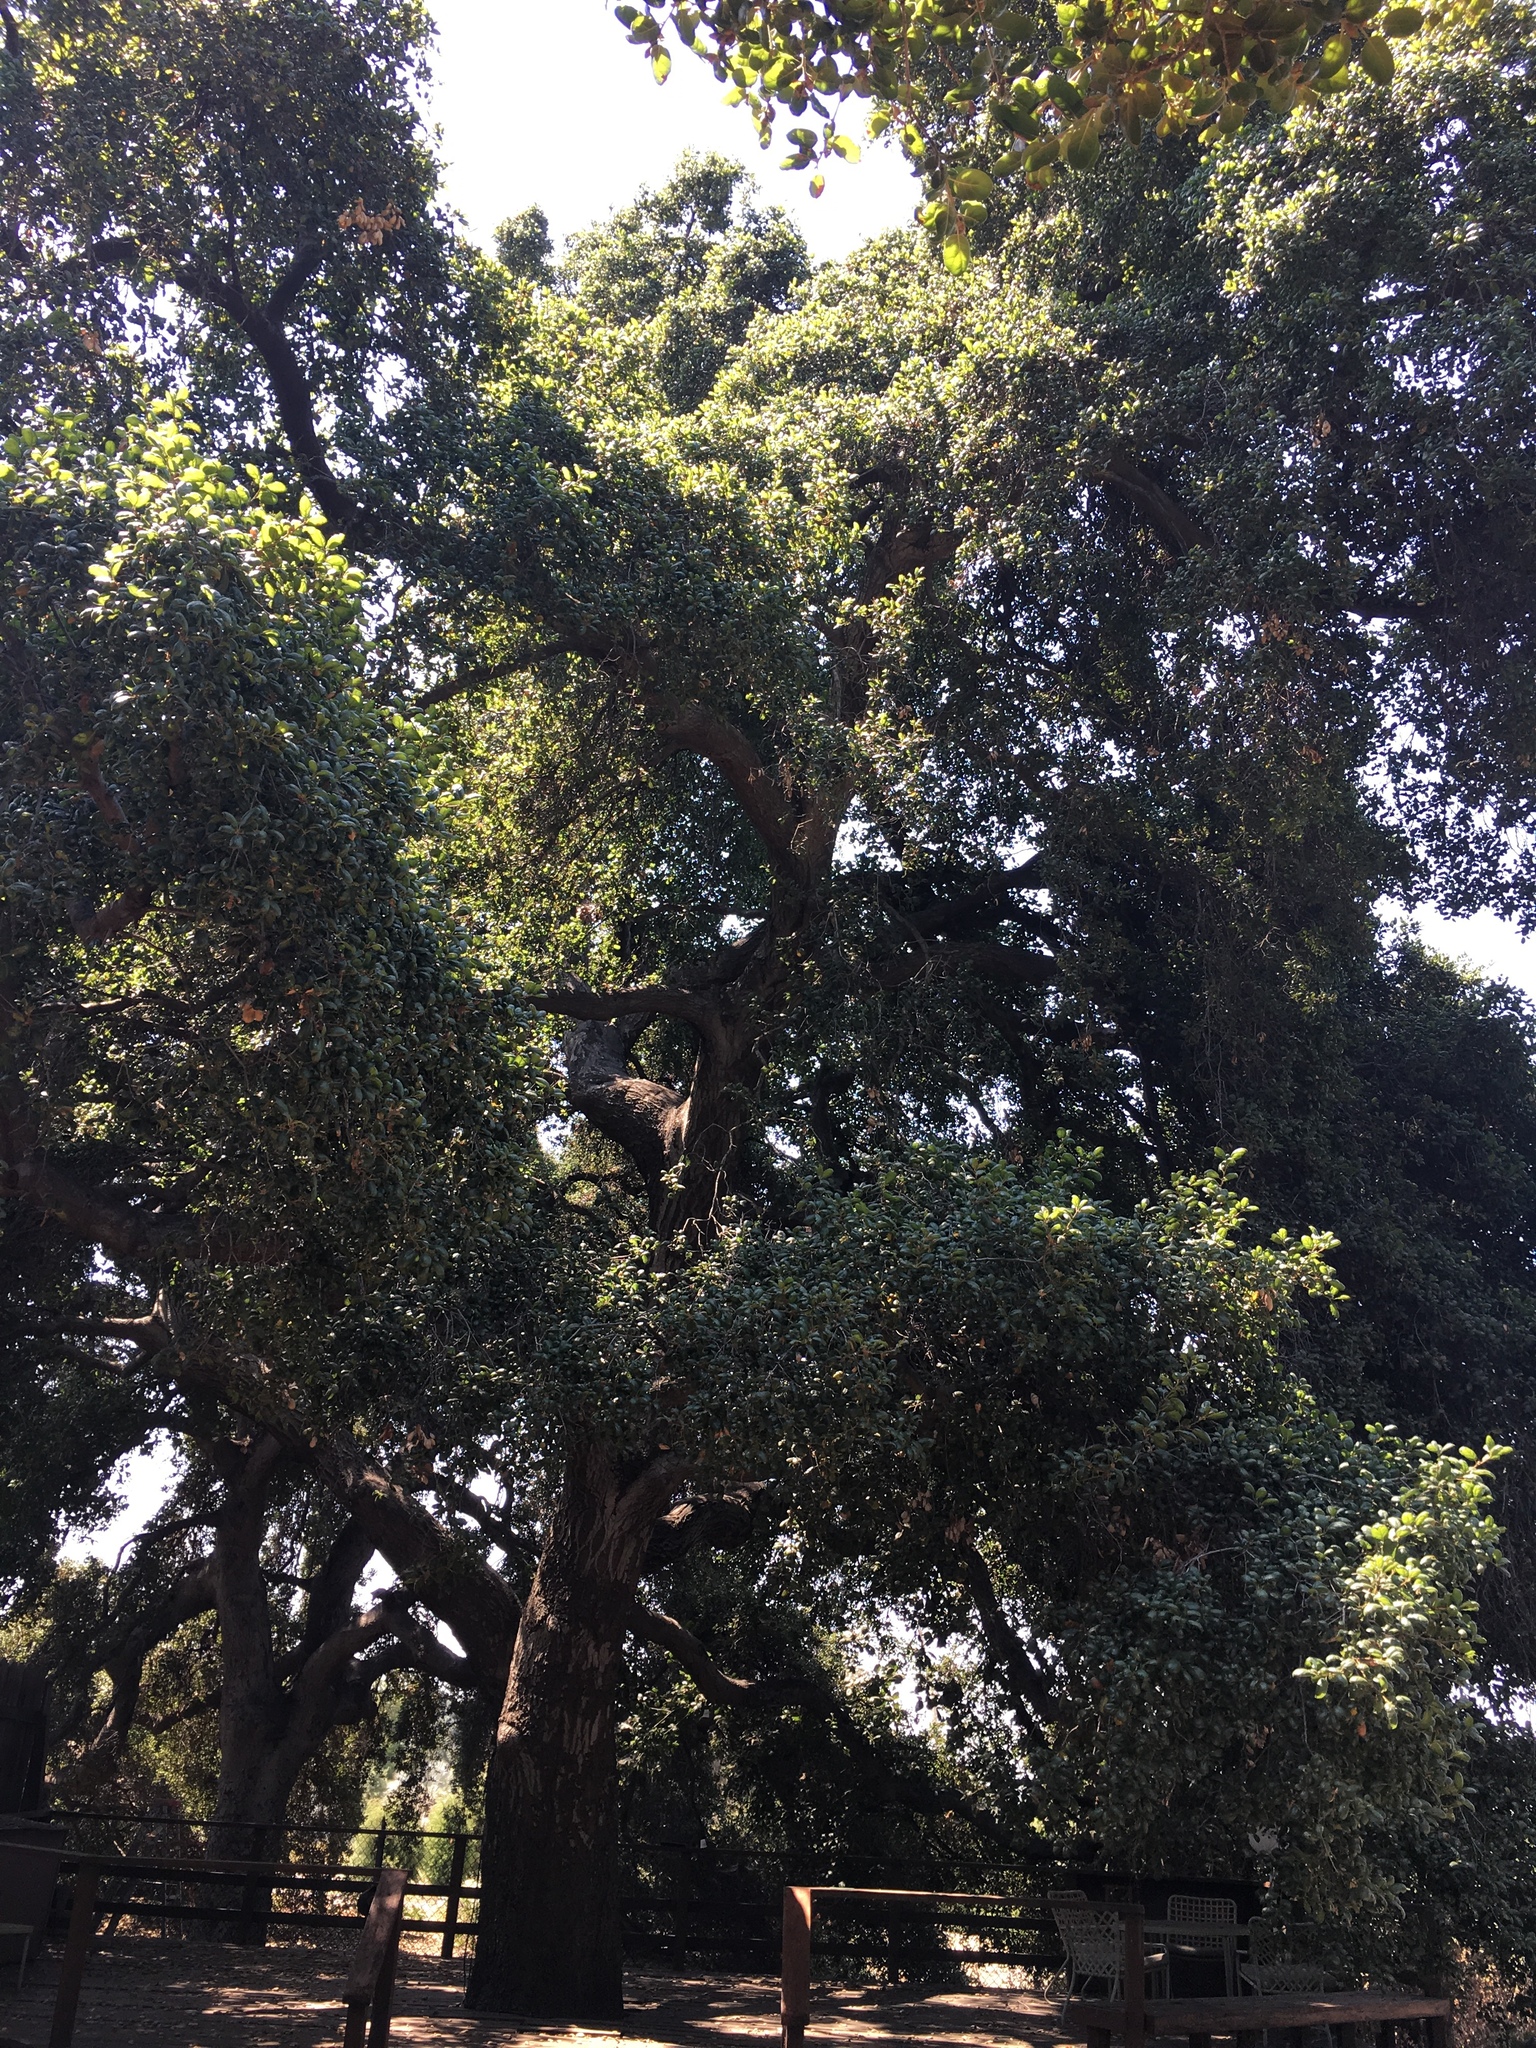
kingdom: Plantae
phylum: Tracheophyta
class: Magnoliopsida
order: Fagales
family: Fagaceae
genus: Quercus
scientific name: Quercus agrifolia
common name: California live oak
